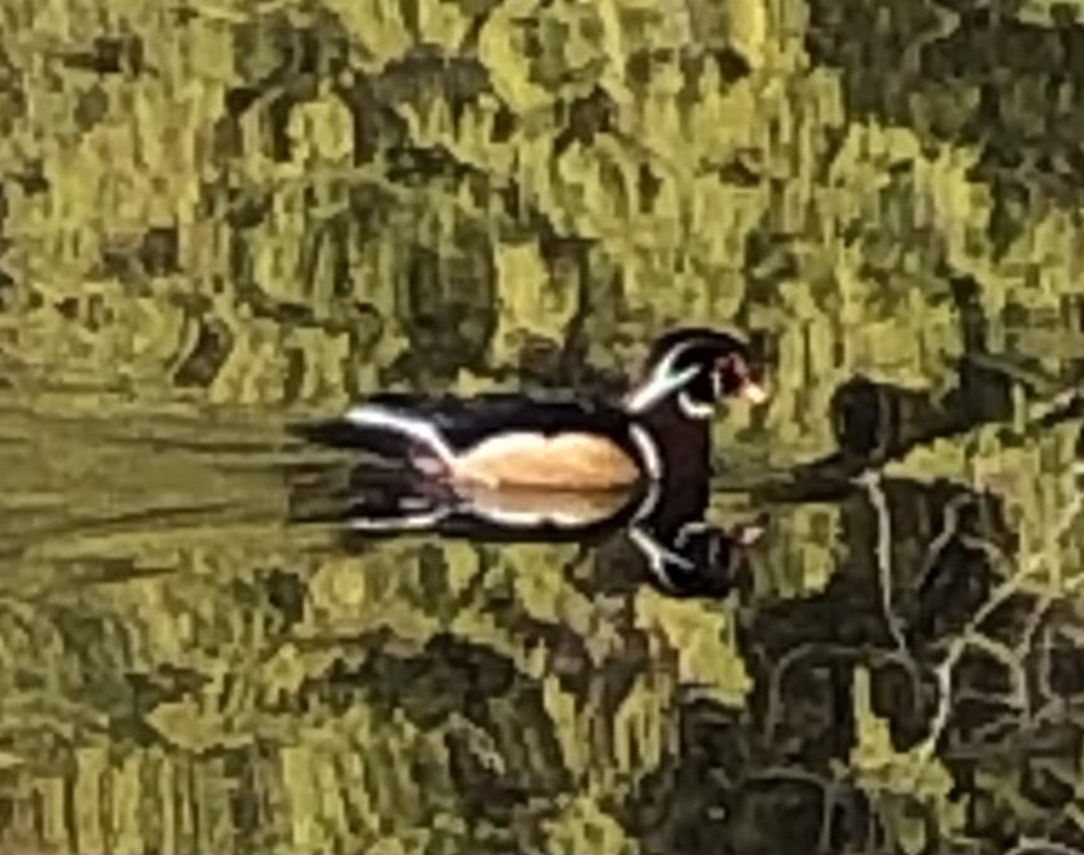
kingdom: Animalia
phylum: Chordata
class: Aves
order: Anseriformes
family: Anatidae
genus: Aix
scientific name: Aix sponsa
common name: Wood duck
